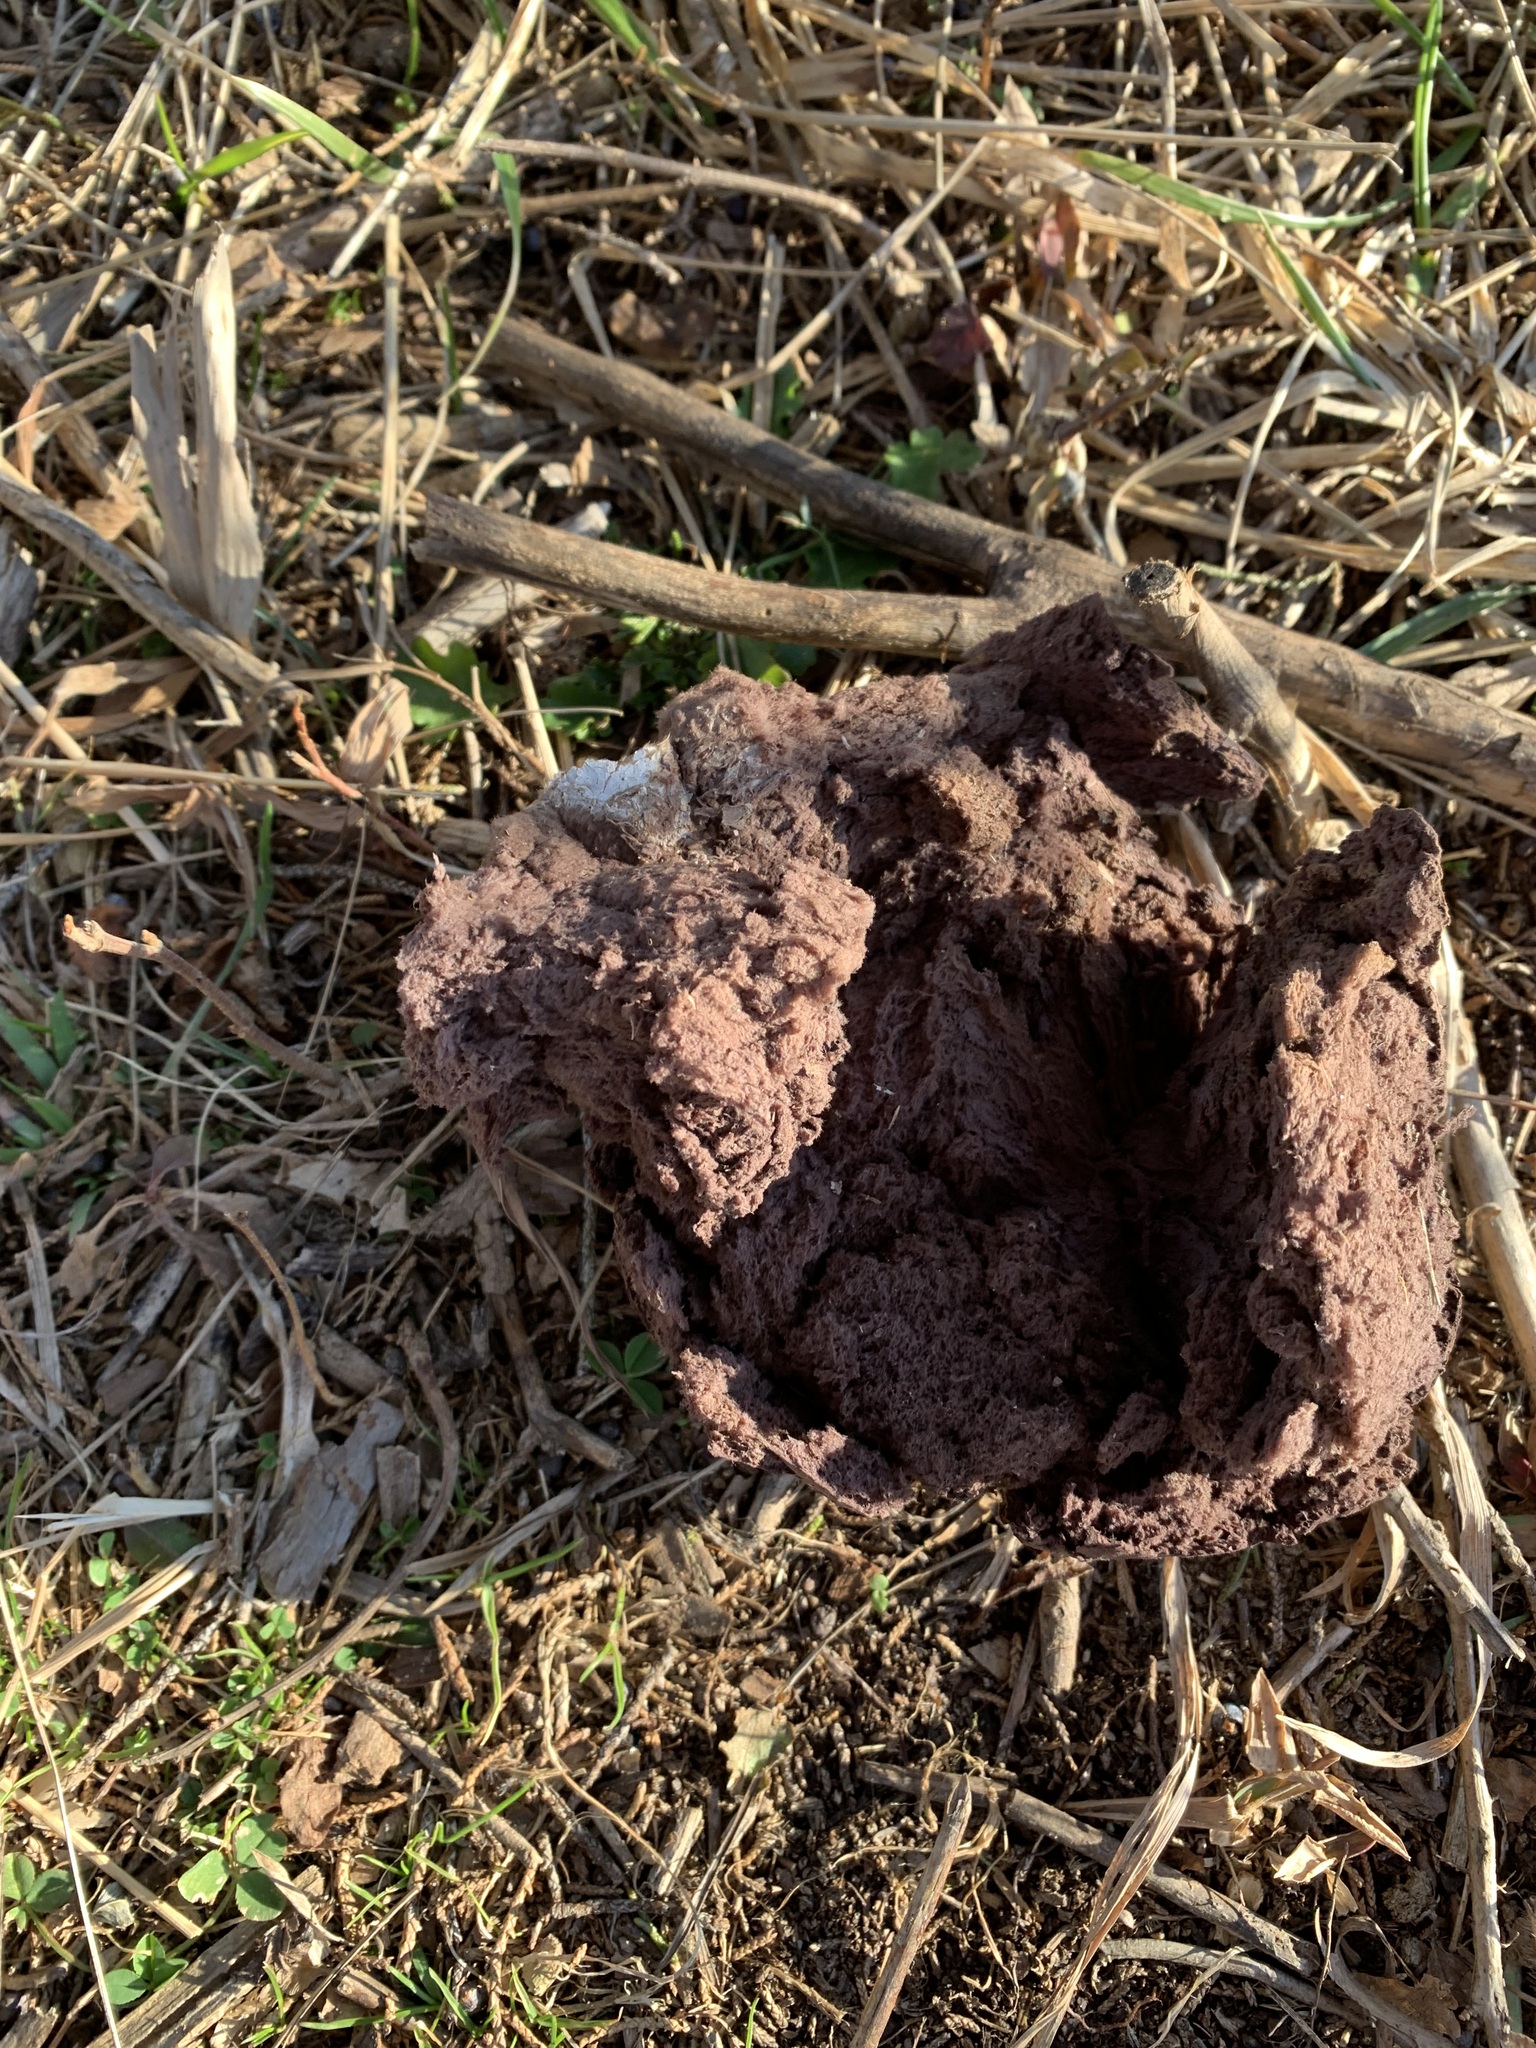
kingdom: Fungi
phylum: Basidiomycota
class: Agaricomycetes
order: Agaricales
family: Lycoperdaceae
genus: Calvatia
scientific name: Calvatia cyathiformis
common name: Purple-spored puffball
